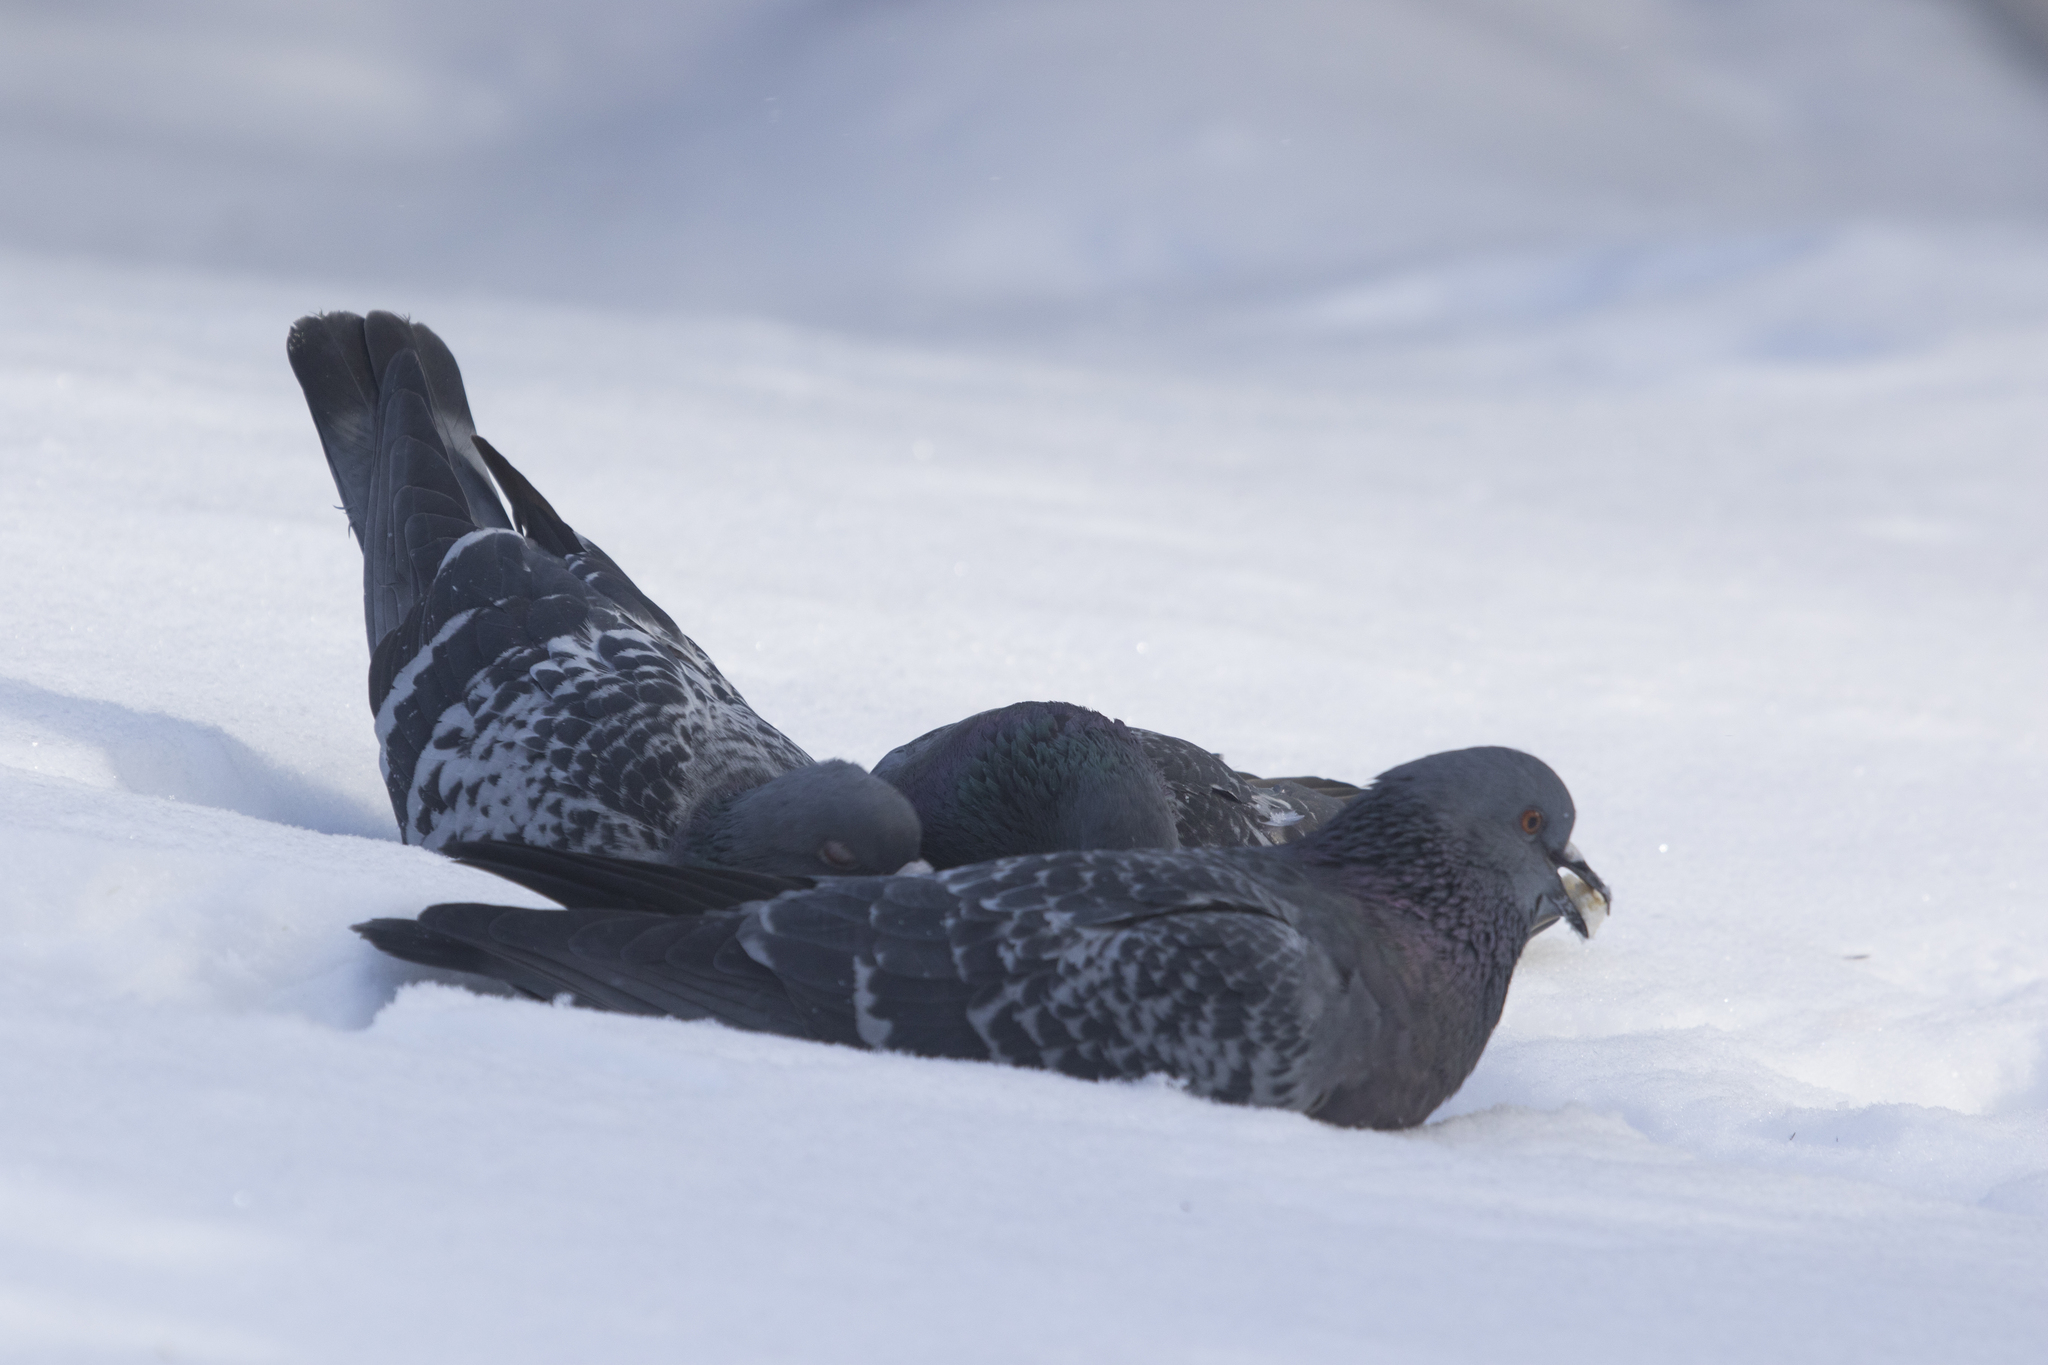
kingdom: Animalia
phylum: Chordata
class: Aves
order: Columbiformes
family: Columbidae
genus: Columba
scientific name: Columba livia
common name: Rock pigeon
